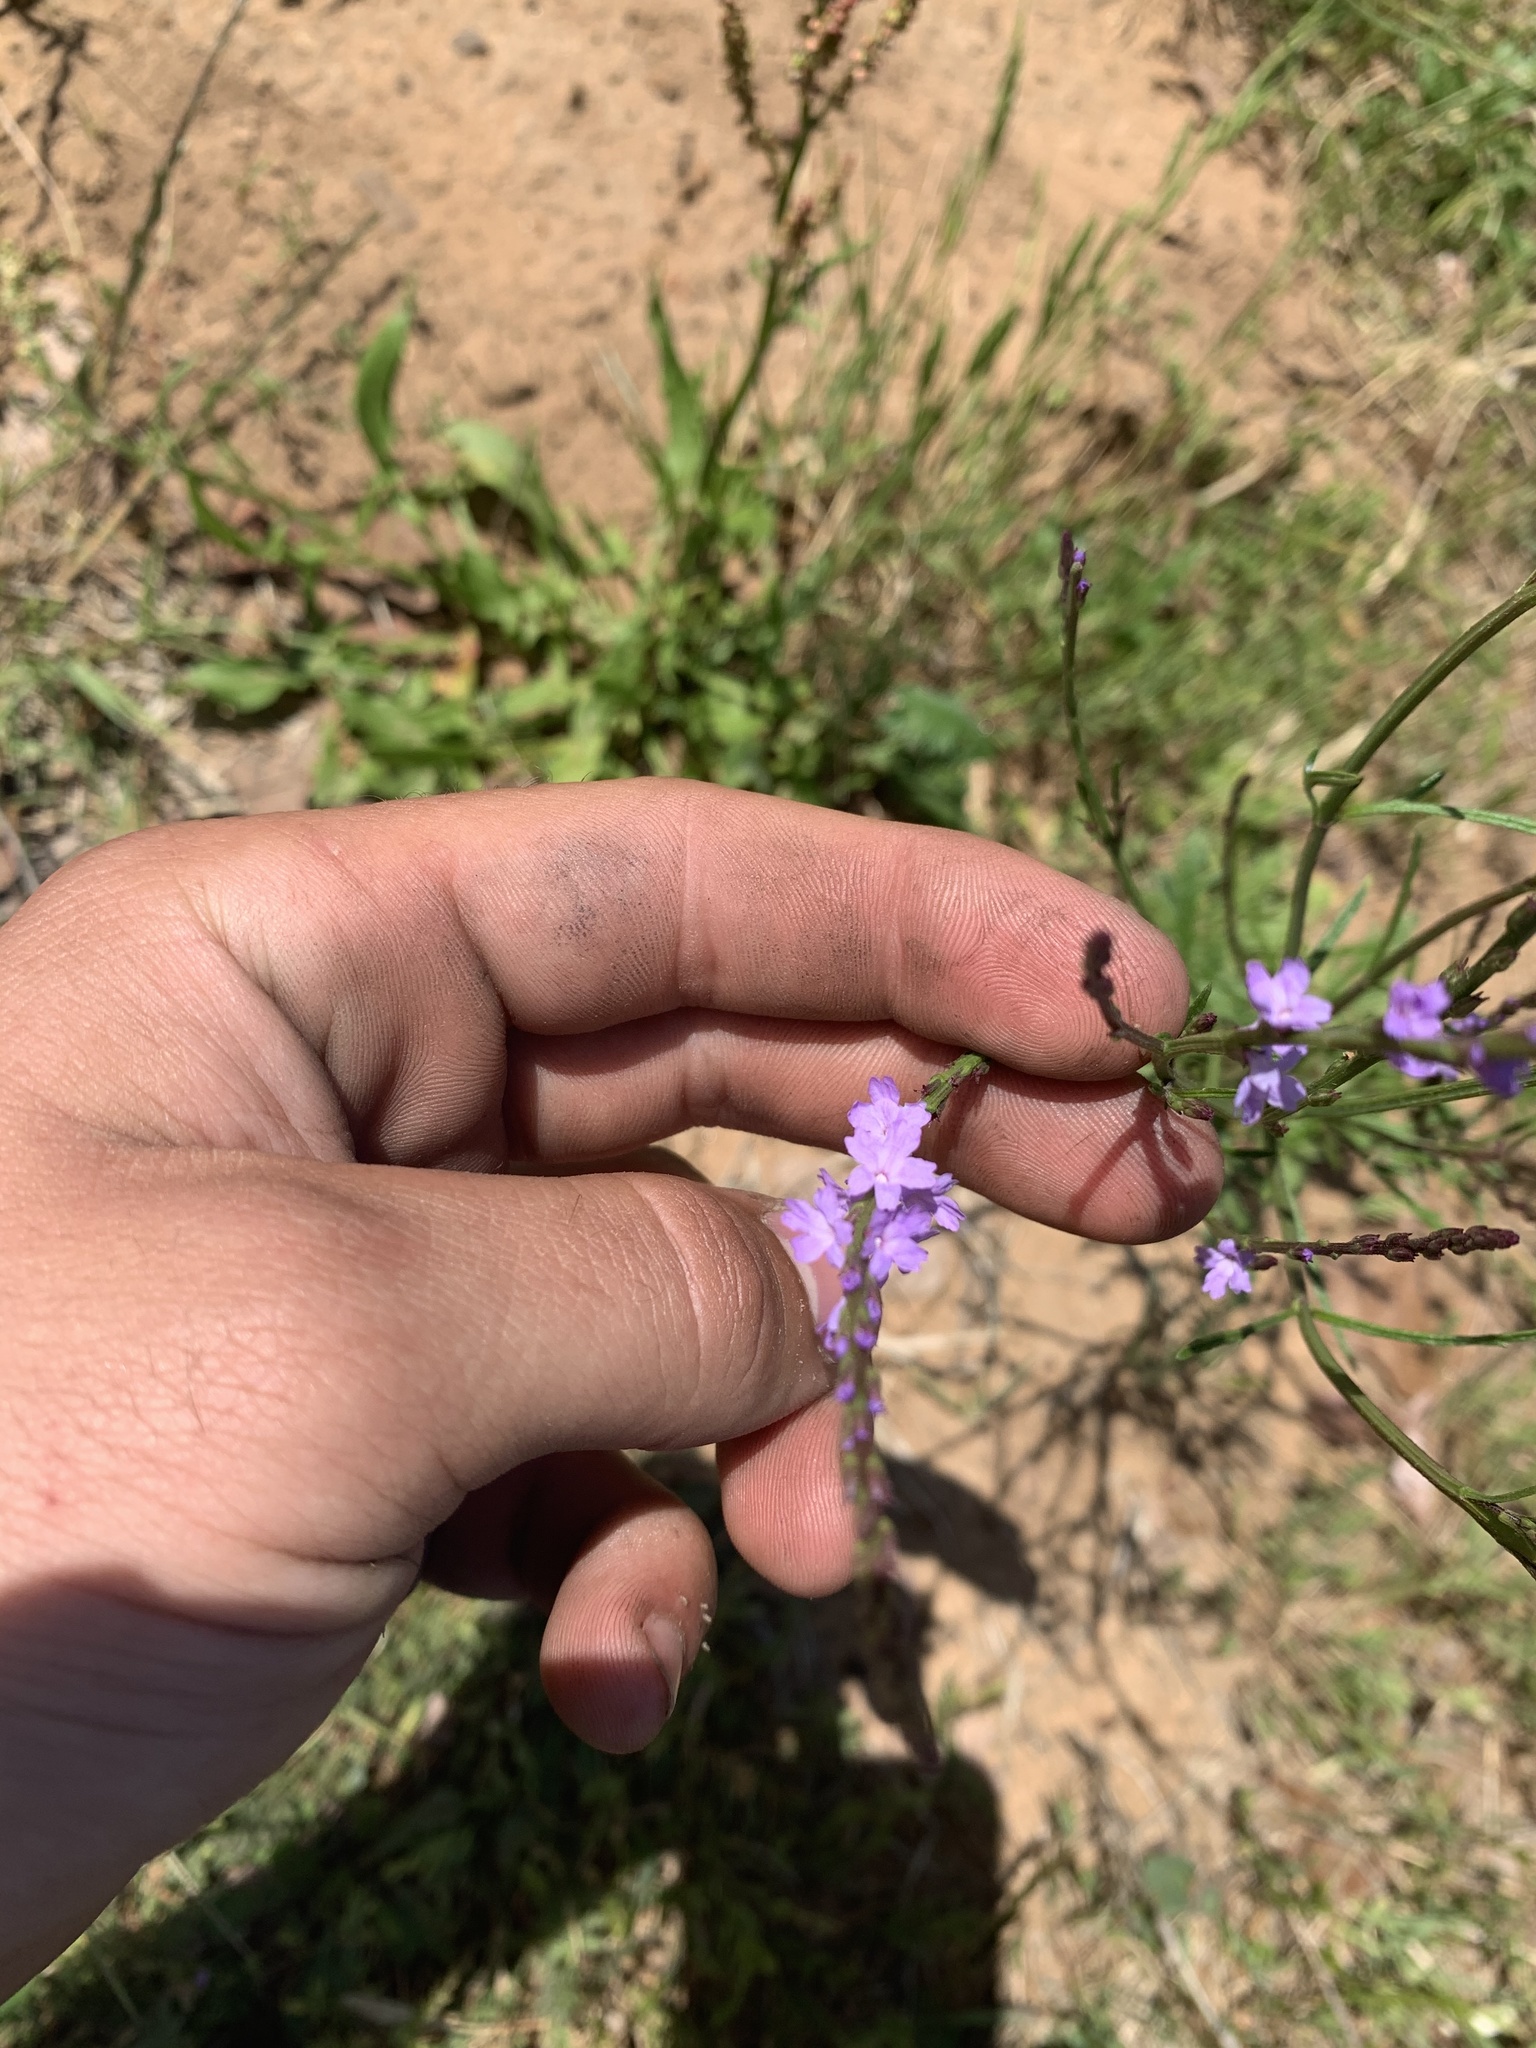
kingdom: Plantae
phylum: Tracheophyta
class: Magnoliopsida
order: Lamiales
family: Verbenaceae
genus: Verbena
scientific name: Verbena halei
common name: Texas vervain
